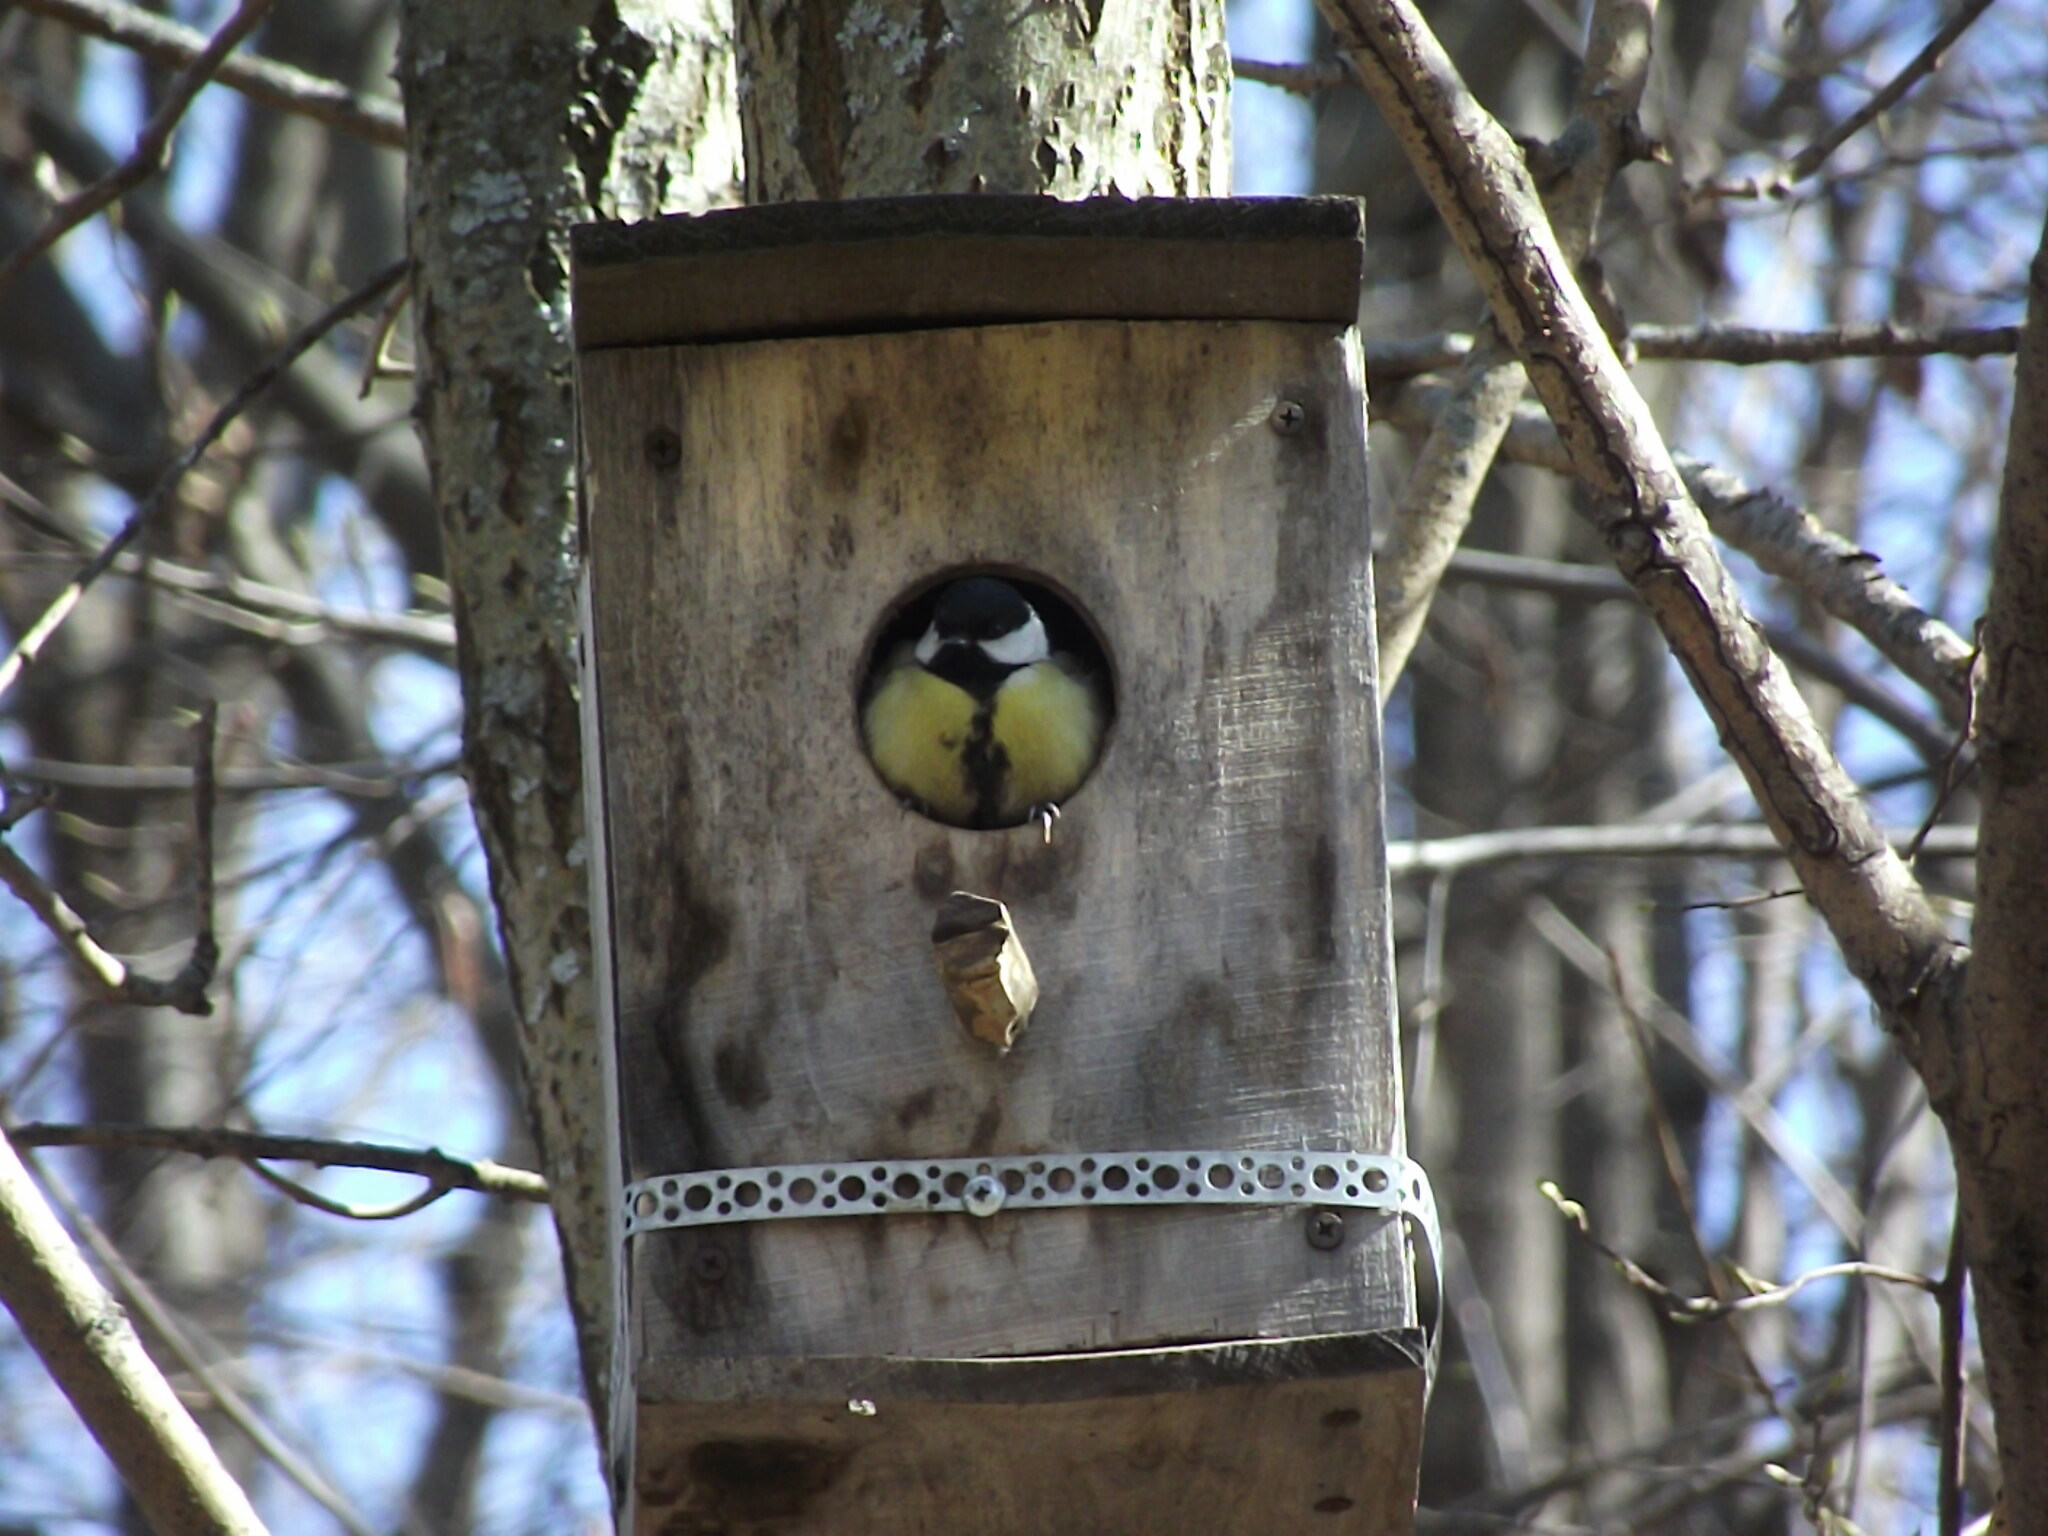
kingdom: Animalia
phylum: Chordata
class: Aves
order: Passeriformes
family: Paridae
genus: Parus
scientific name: Parus major
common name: Great tit
